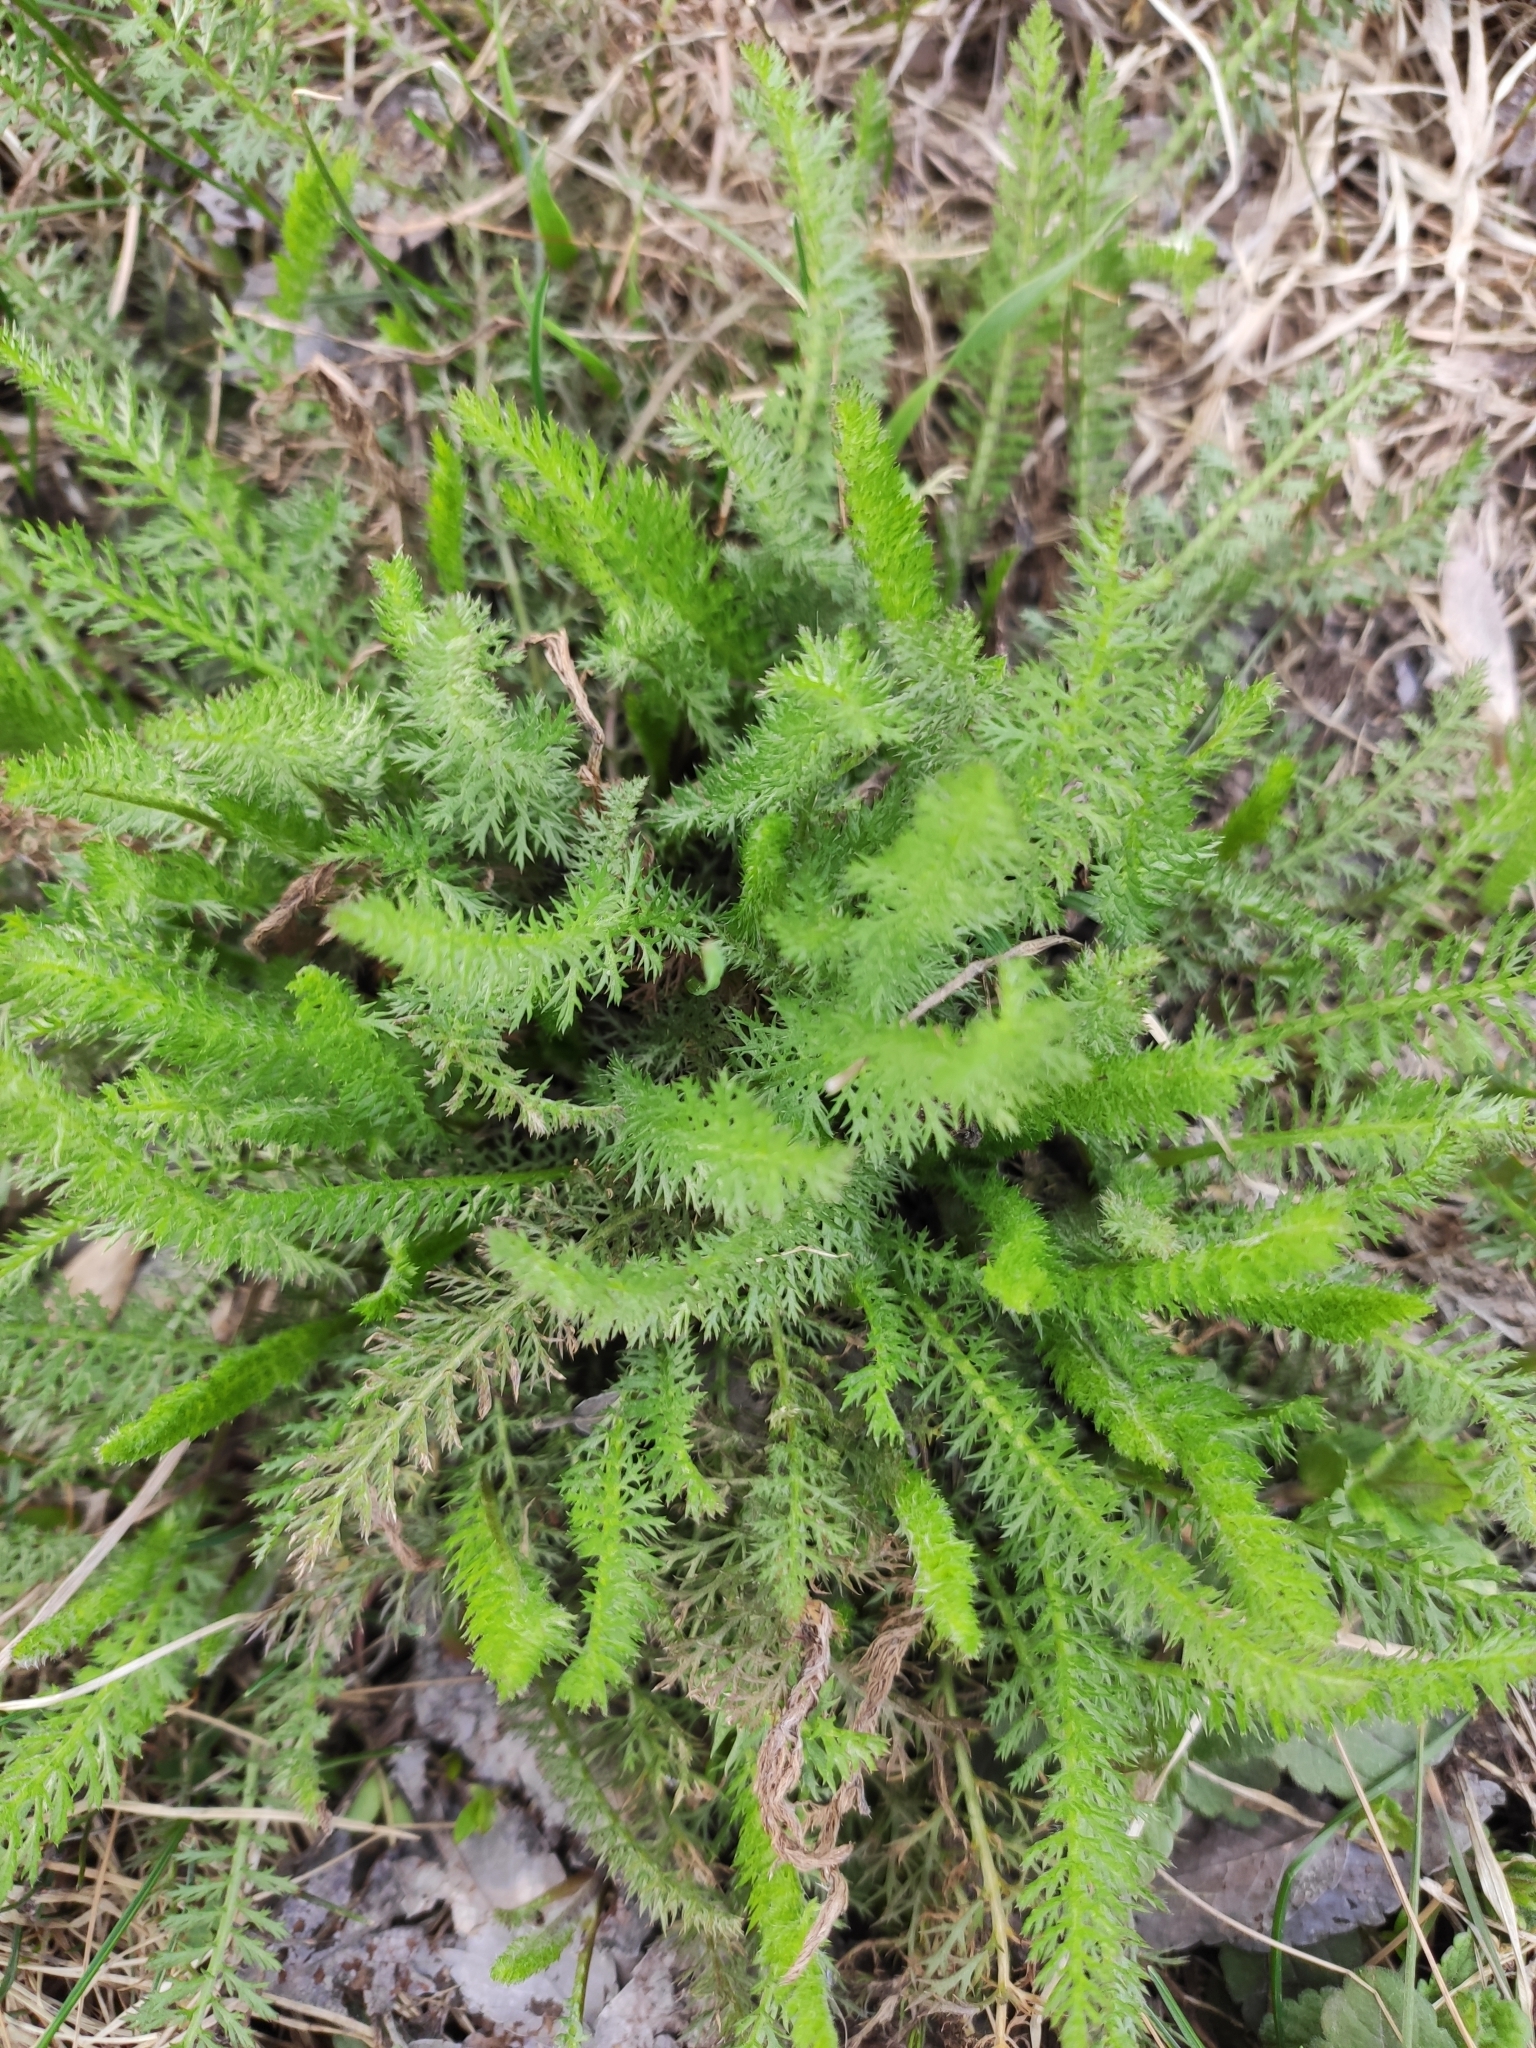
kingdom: Plantae
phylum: Tracheophyta
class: Magnoliopsida
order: Asterales
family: Asteraceae
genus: Achillea
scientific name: Achillea millefolium
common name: Yarrow
